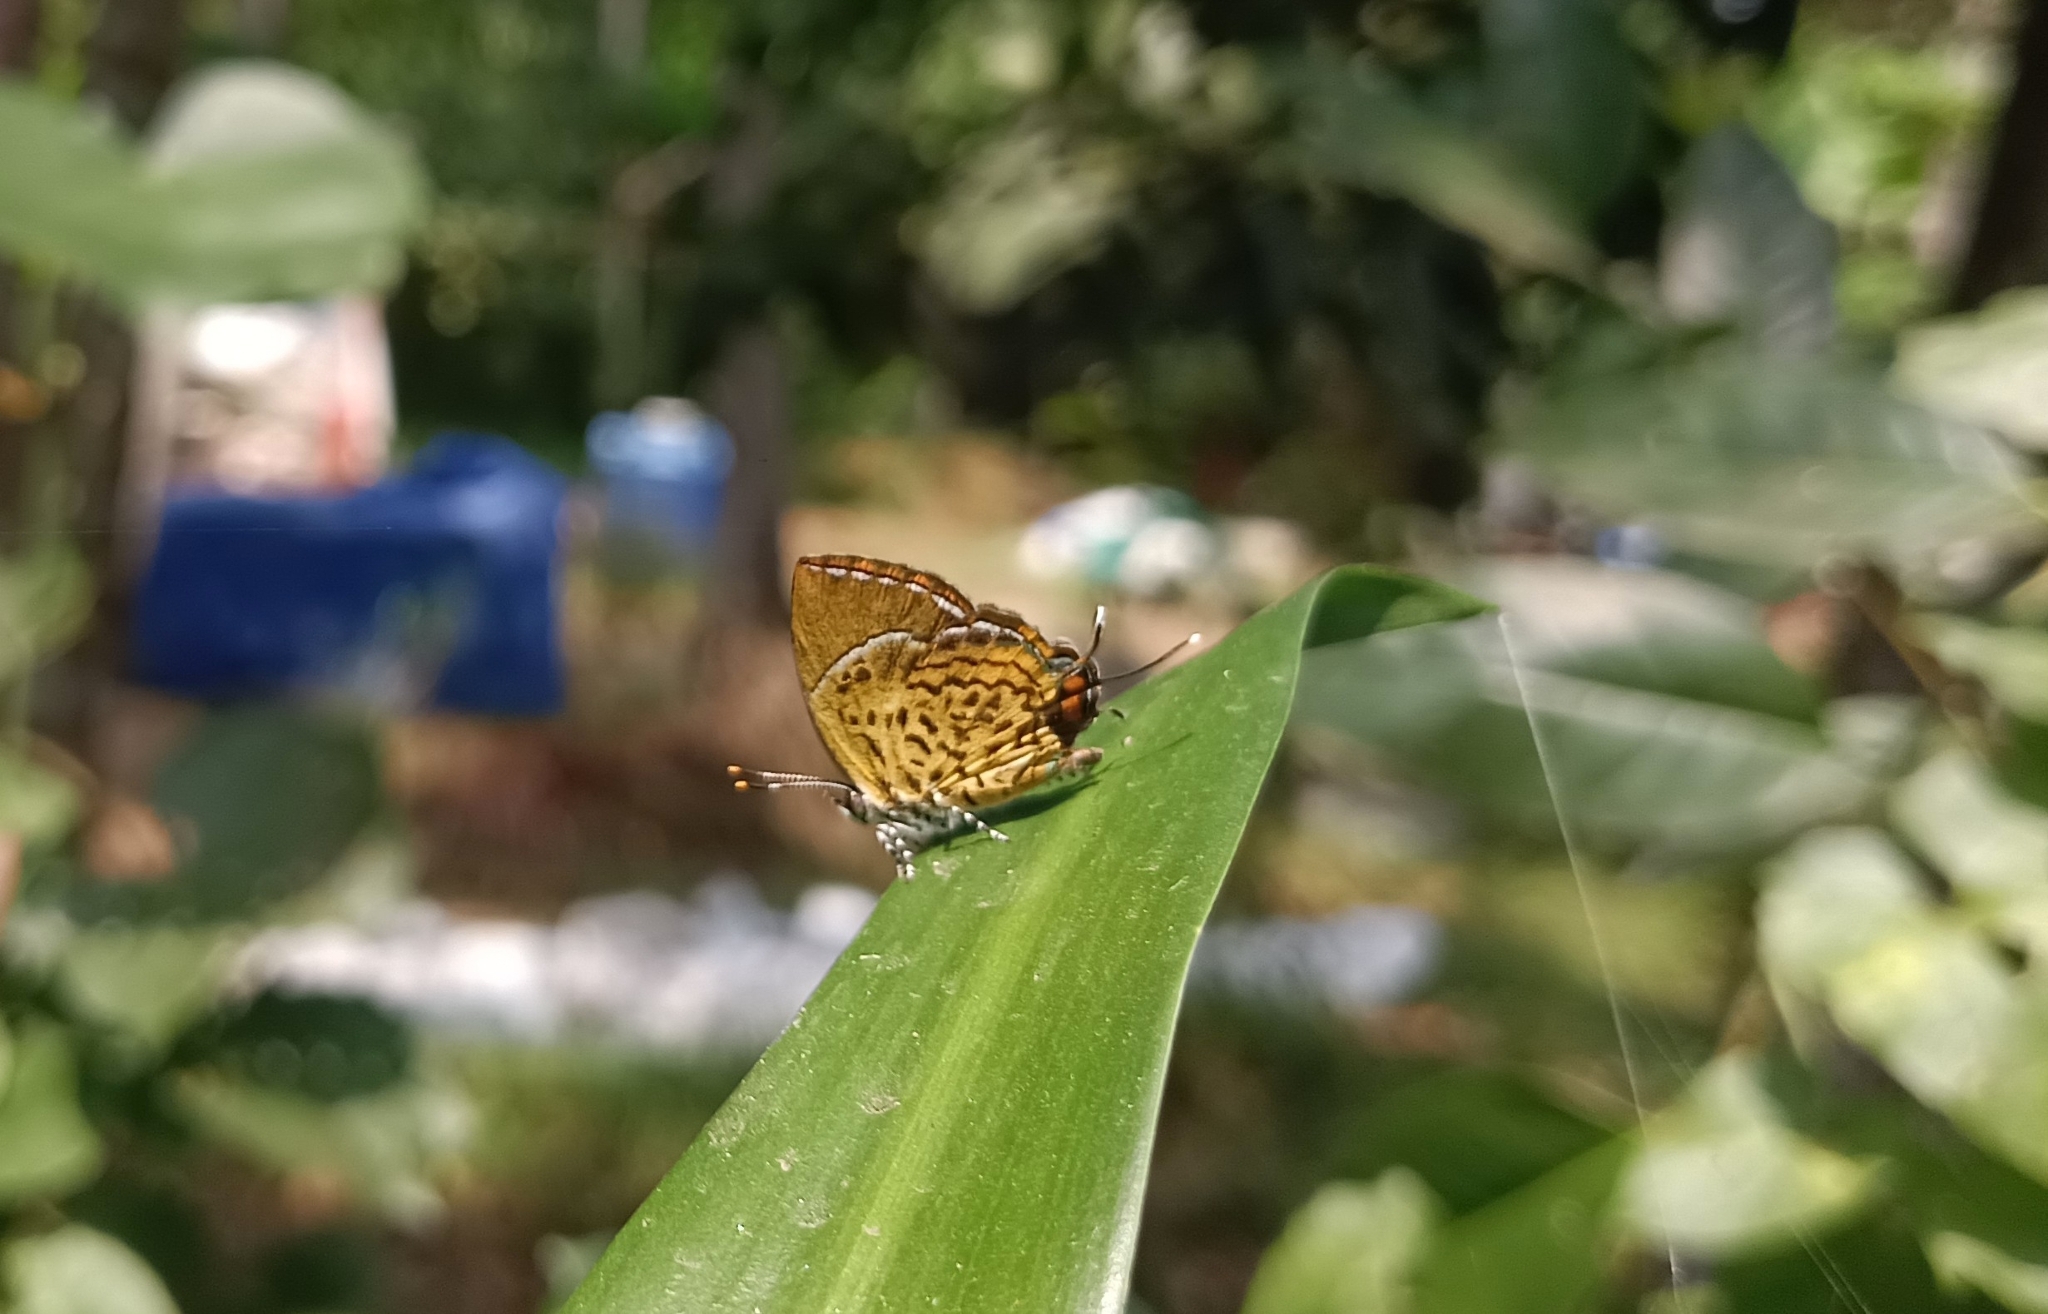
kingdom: Animalia
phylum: Arthropoda
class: Insecta
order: Lepidoptera
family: Lycaenidae
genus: Rathinda
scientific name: Rathinda amor
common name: Monkey puzzle
